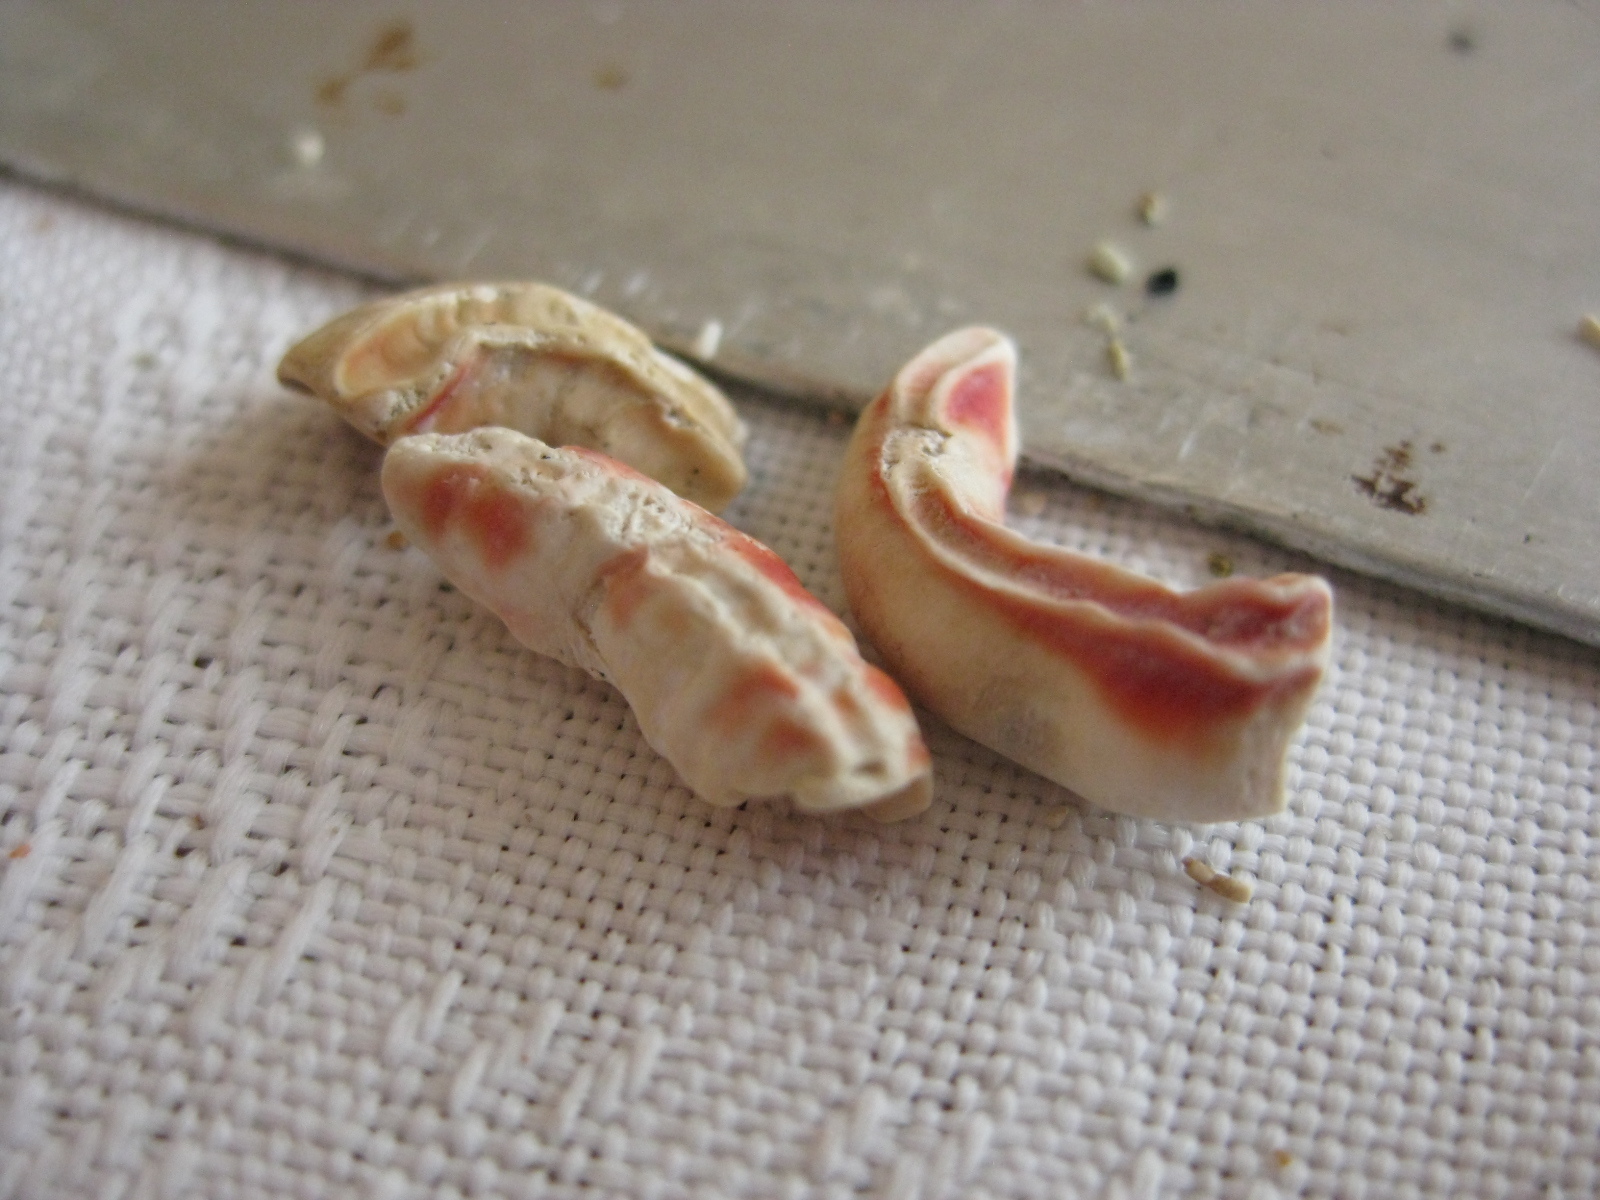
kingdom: Animalia
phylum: Annelida
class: Polychaeta
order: Sabellida
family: Serpulidae
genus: Galeolaria
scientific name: Galeolaria hystrix
